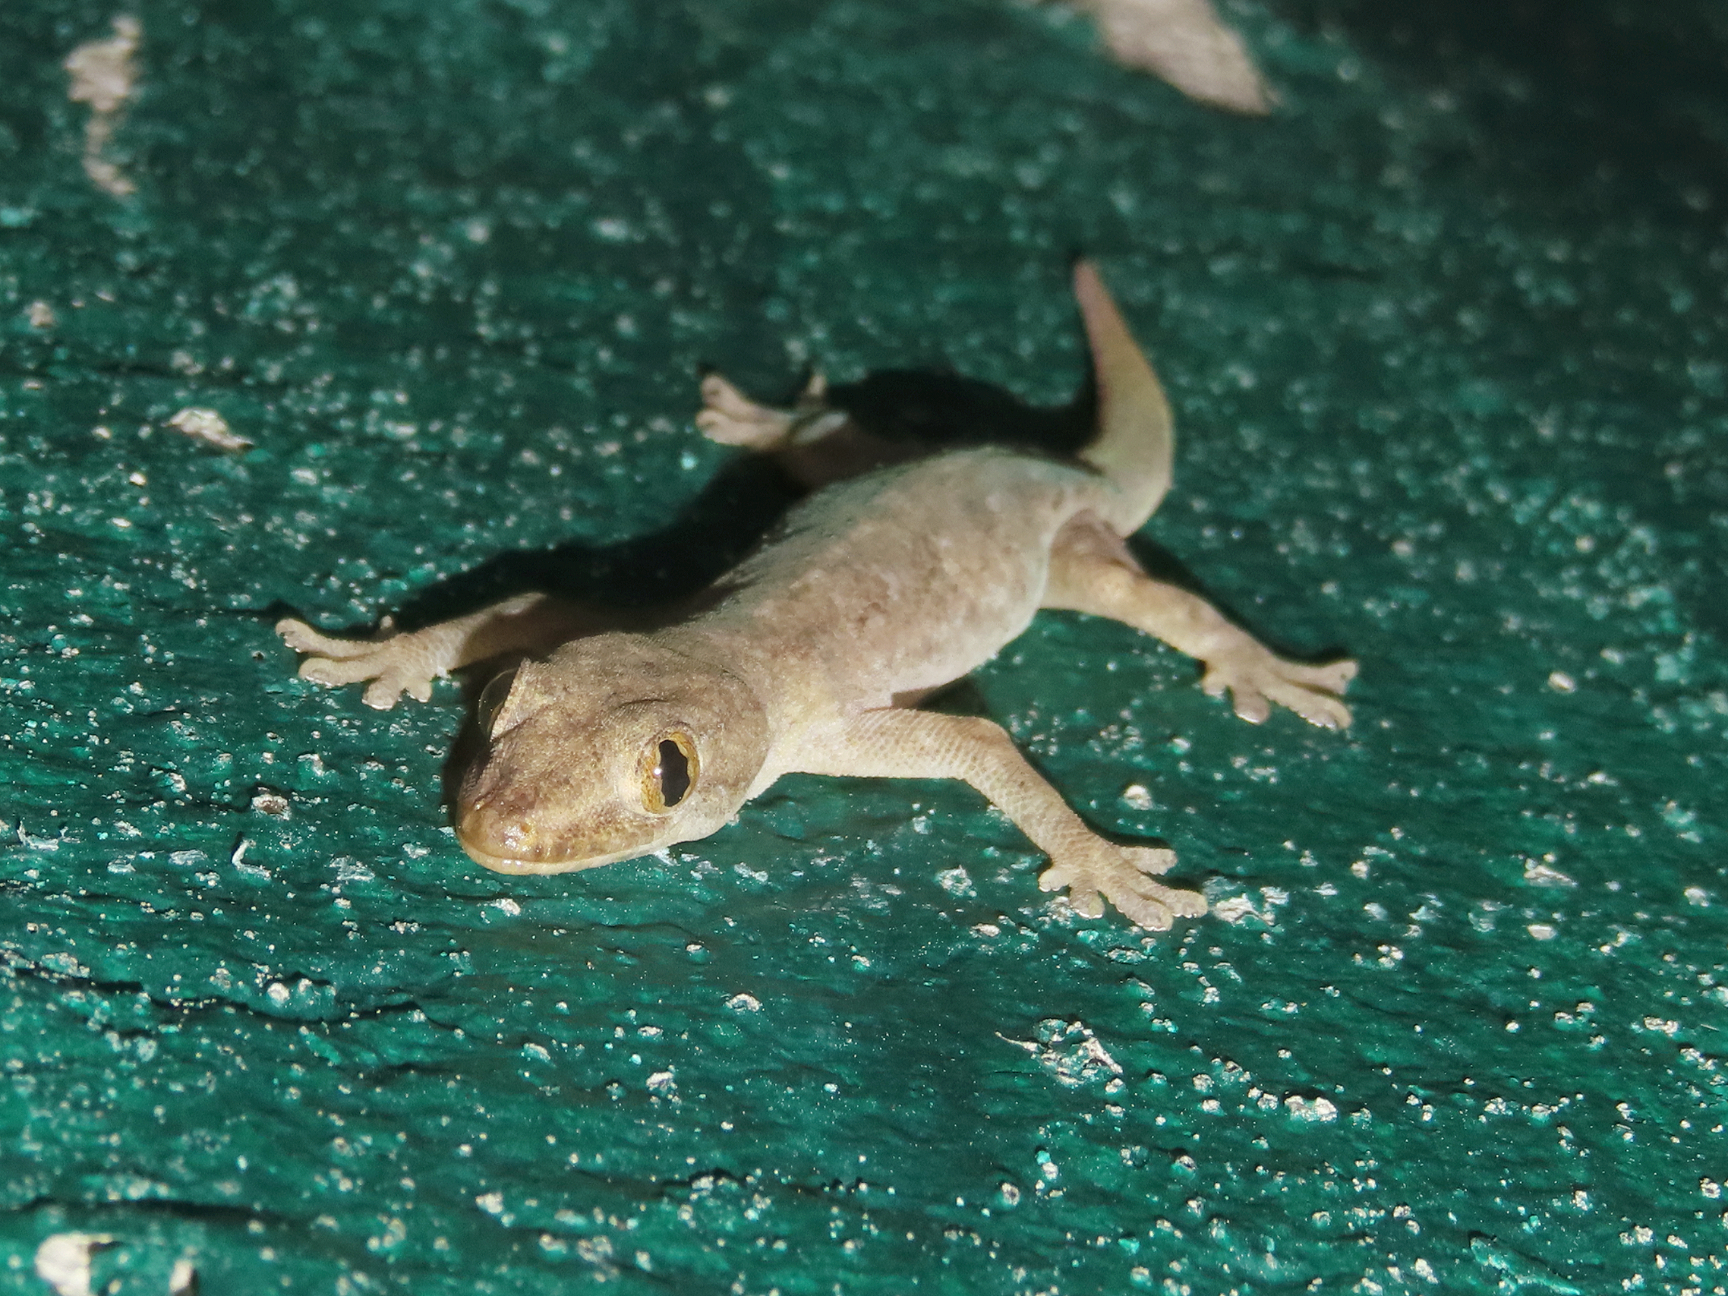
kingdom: Animalia
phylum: Chordata
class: Squamata
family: Gekkonidae
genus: Hemidactylus
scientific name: Hemidactylus frenatus
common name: Common house gecko
